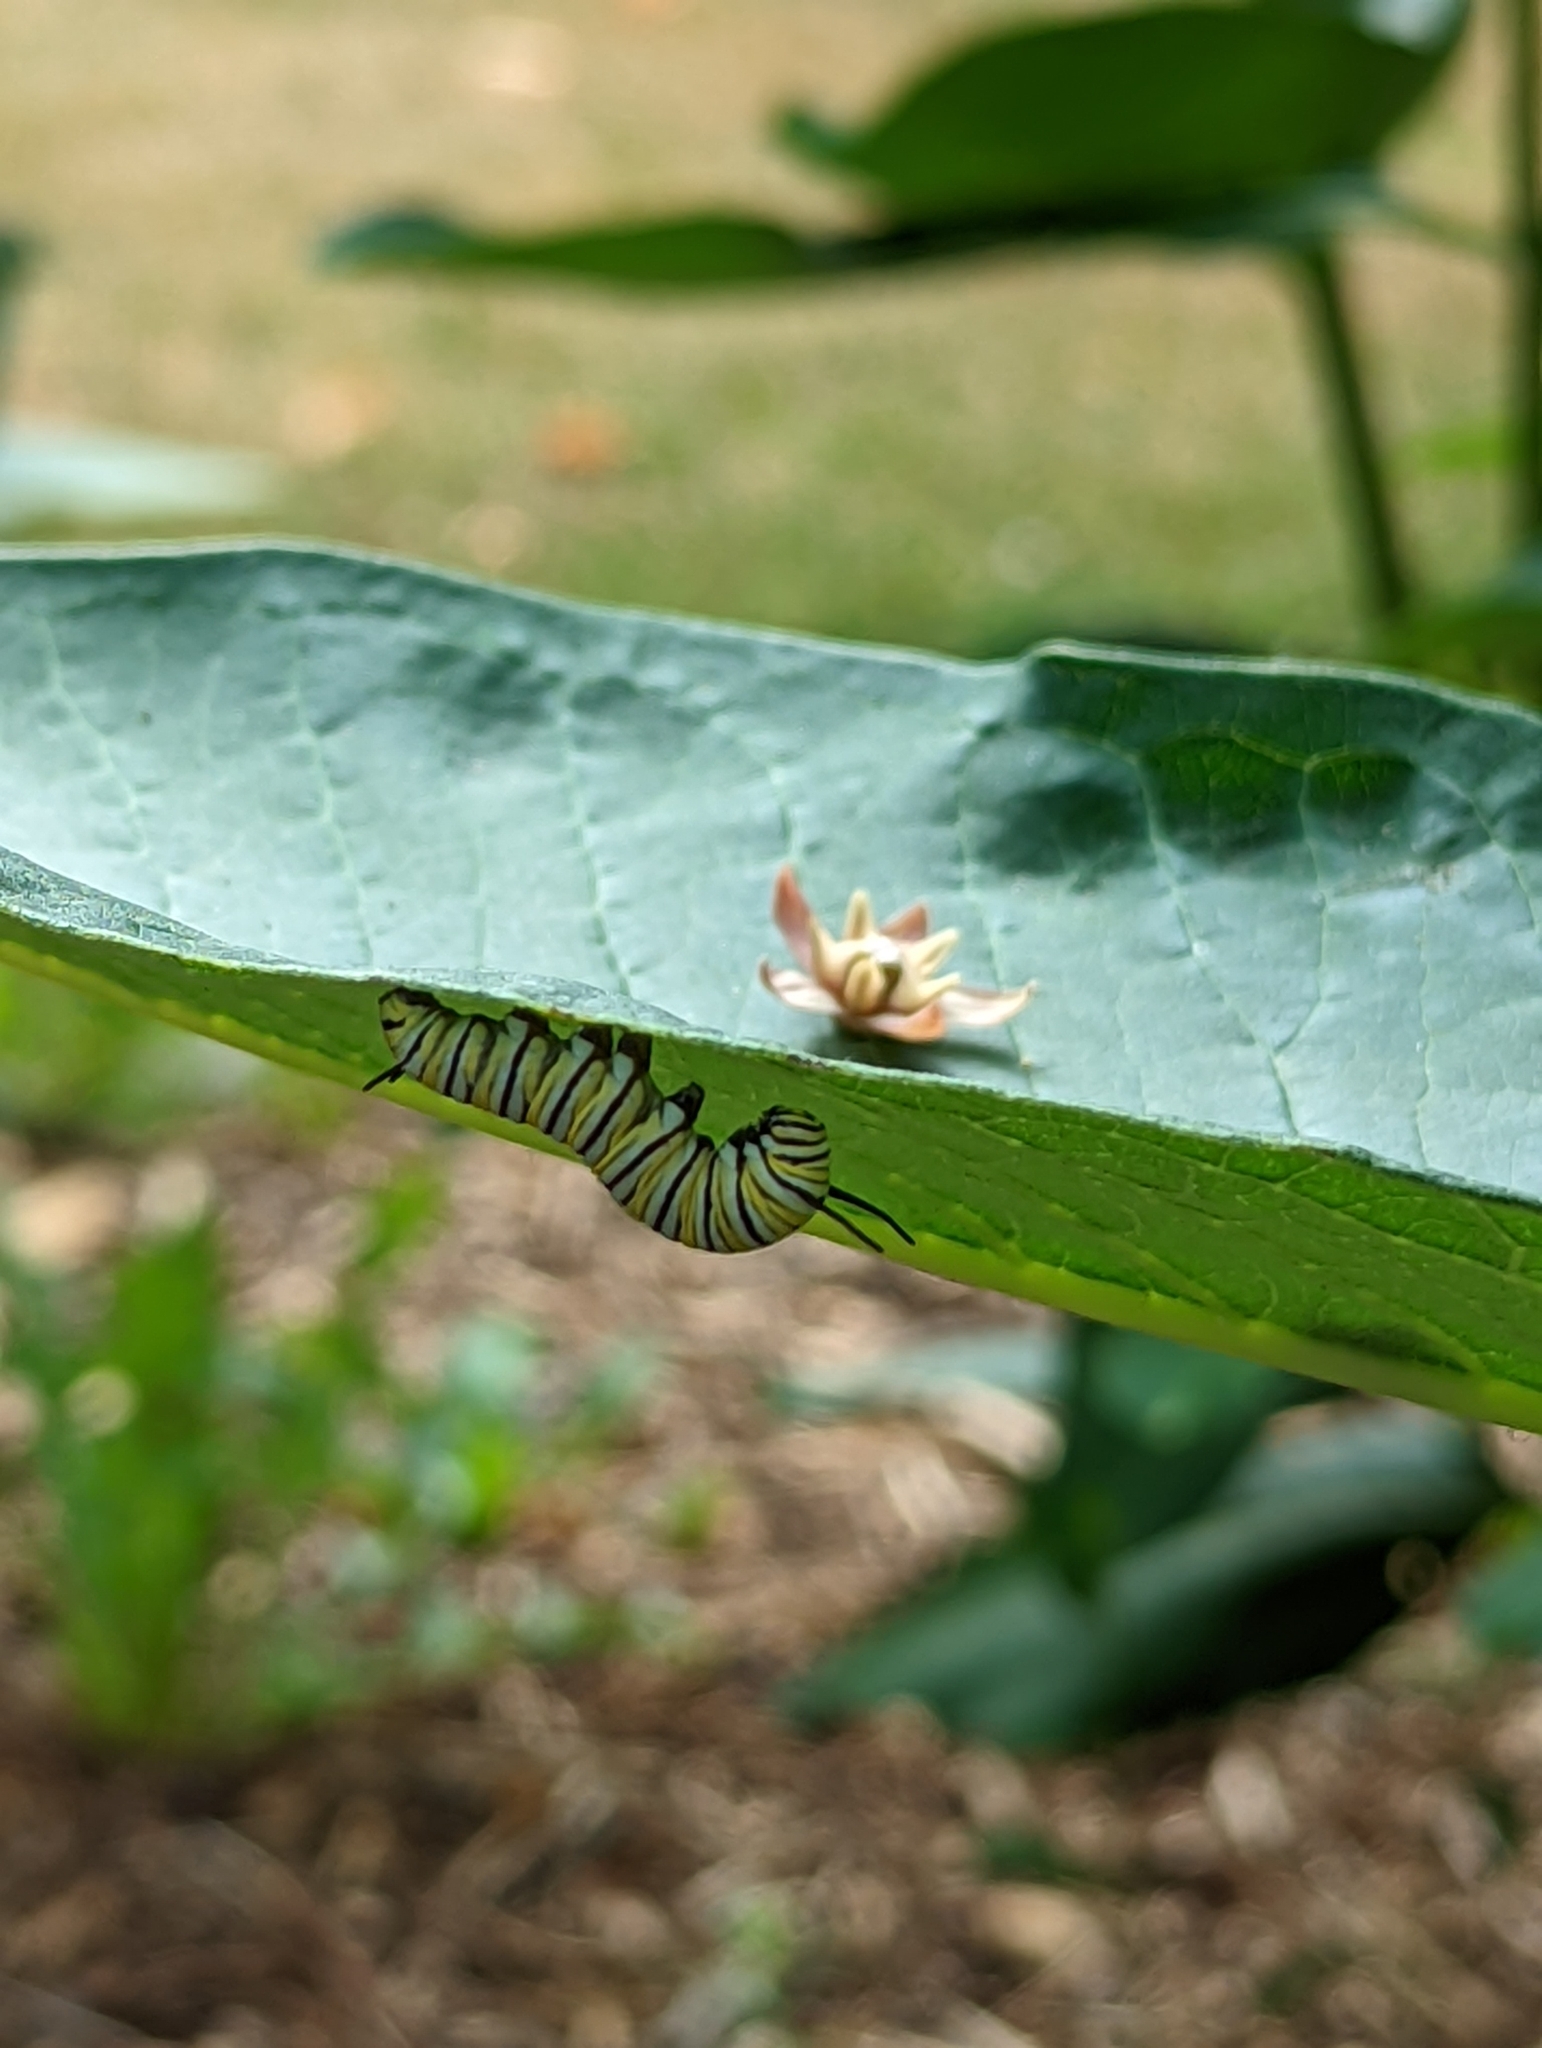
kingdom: Animalia
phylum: Arthropoda
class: Insecta
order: Lepidoptera
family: Nymphalidae
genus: Danaus
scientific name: Danaus plexippus
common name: Monarch
